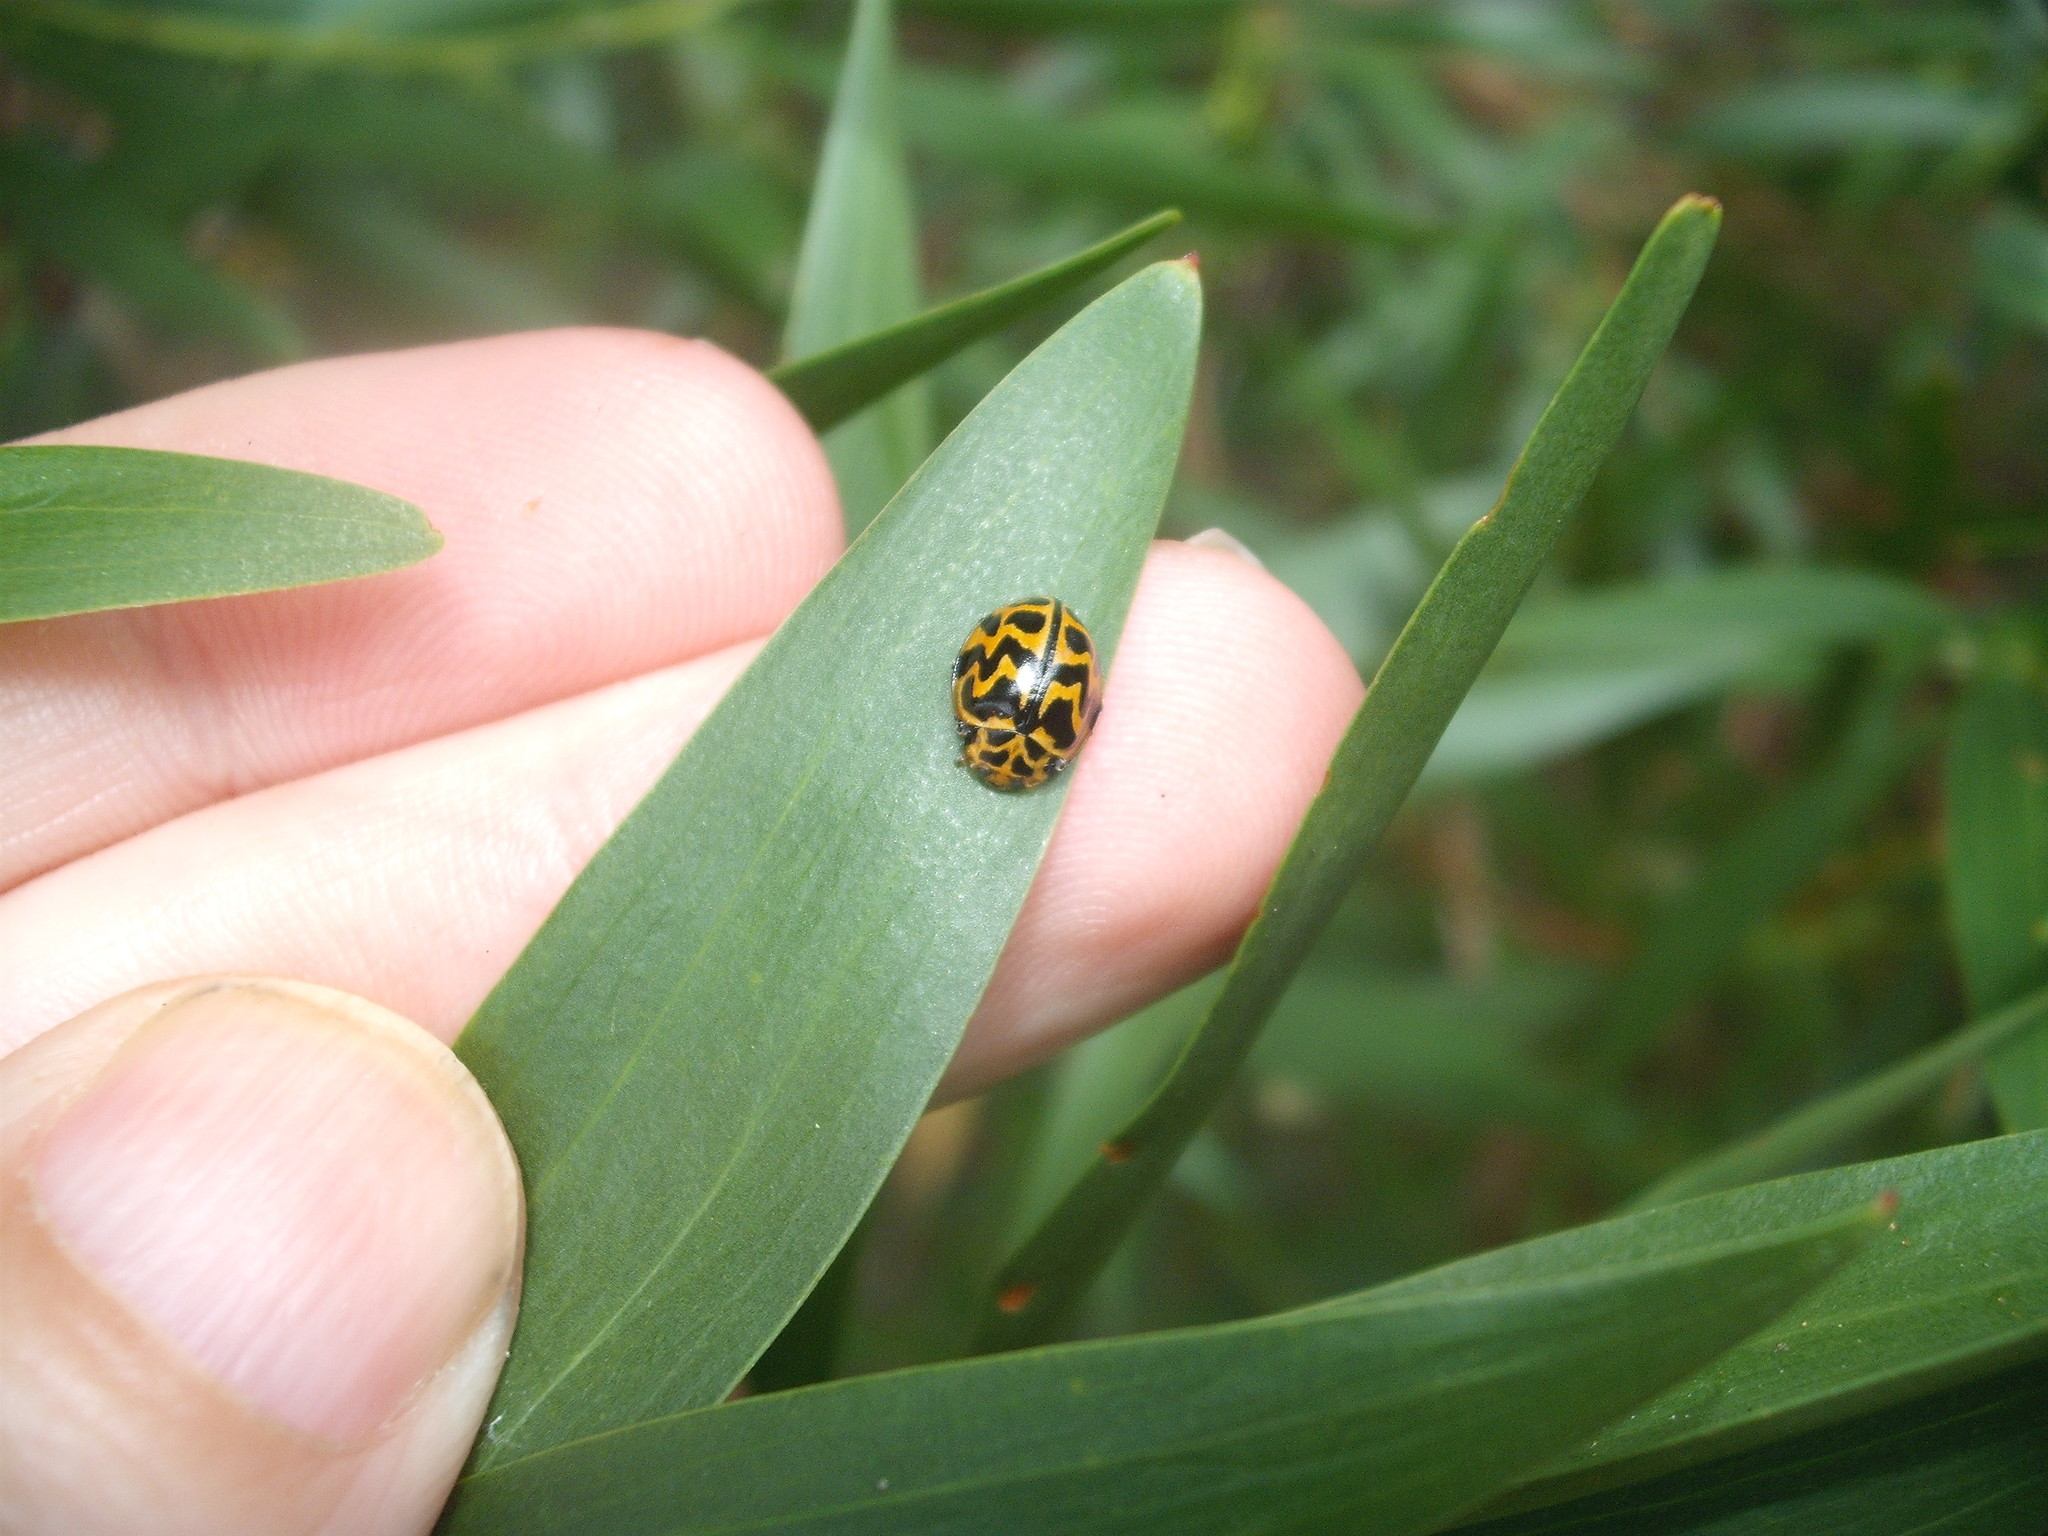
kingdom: Animalia
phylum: Arthropoda
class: Insecta
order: Coleoptera
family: Coccinellidae
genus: Cleobora
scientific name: Cleobora
